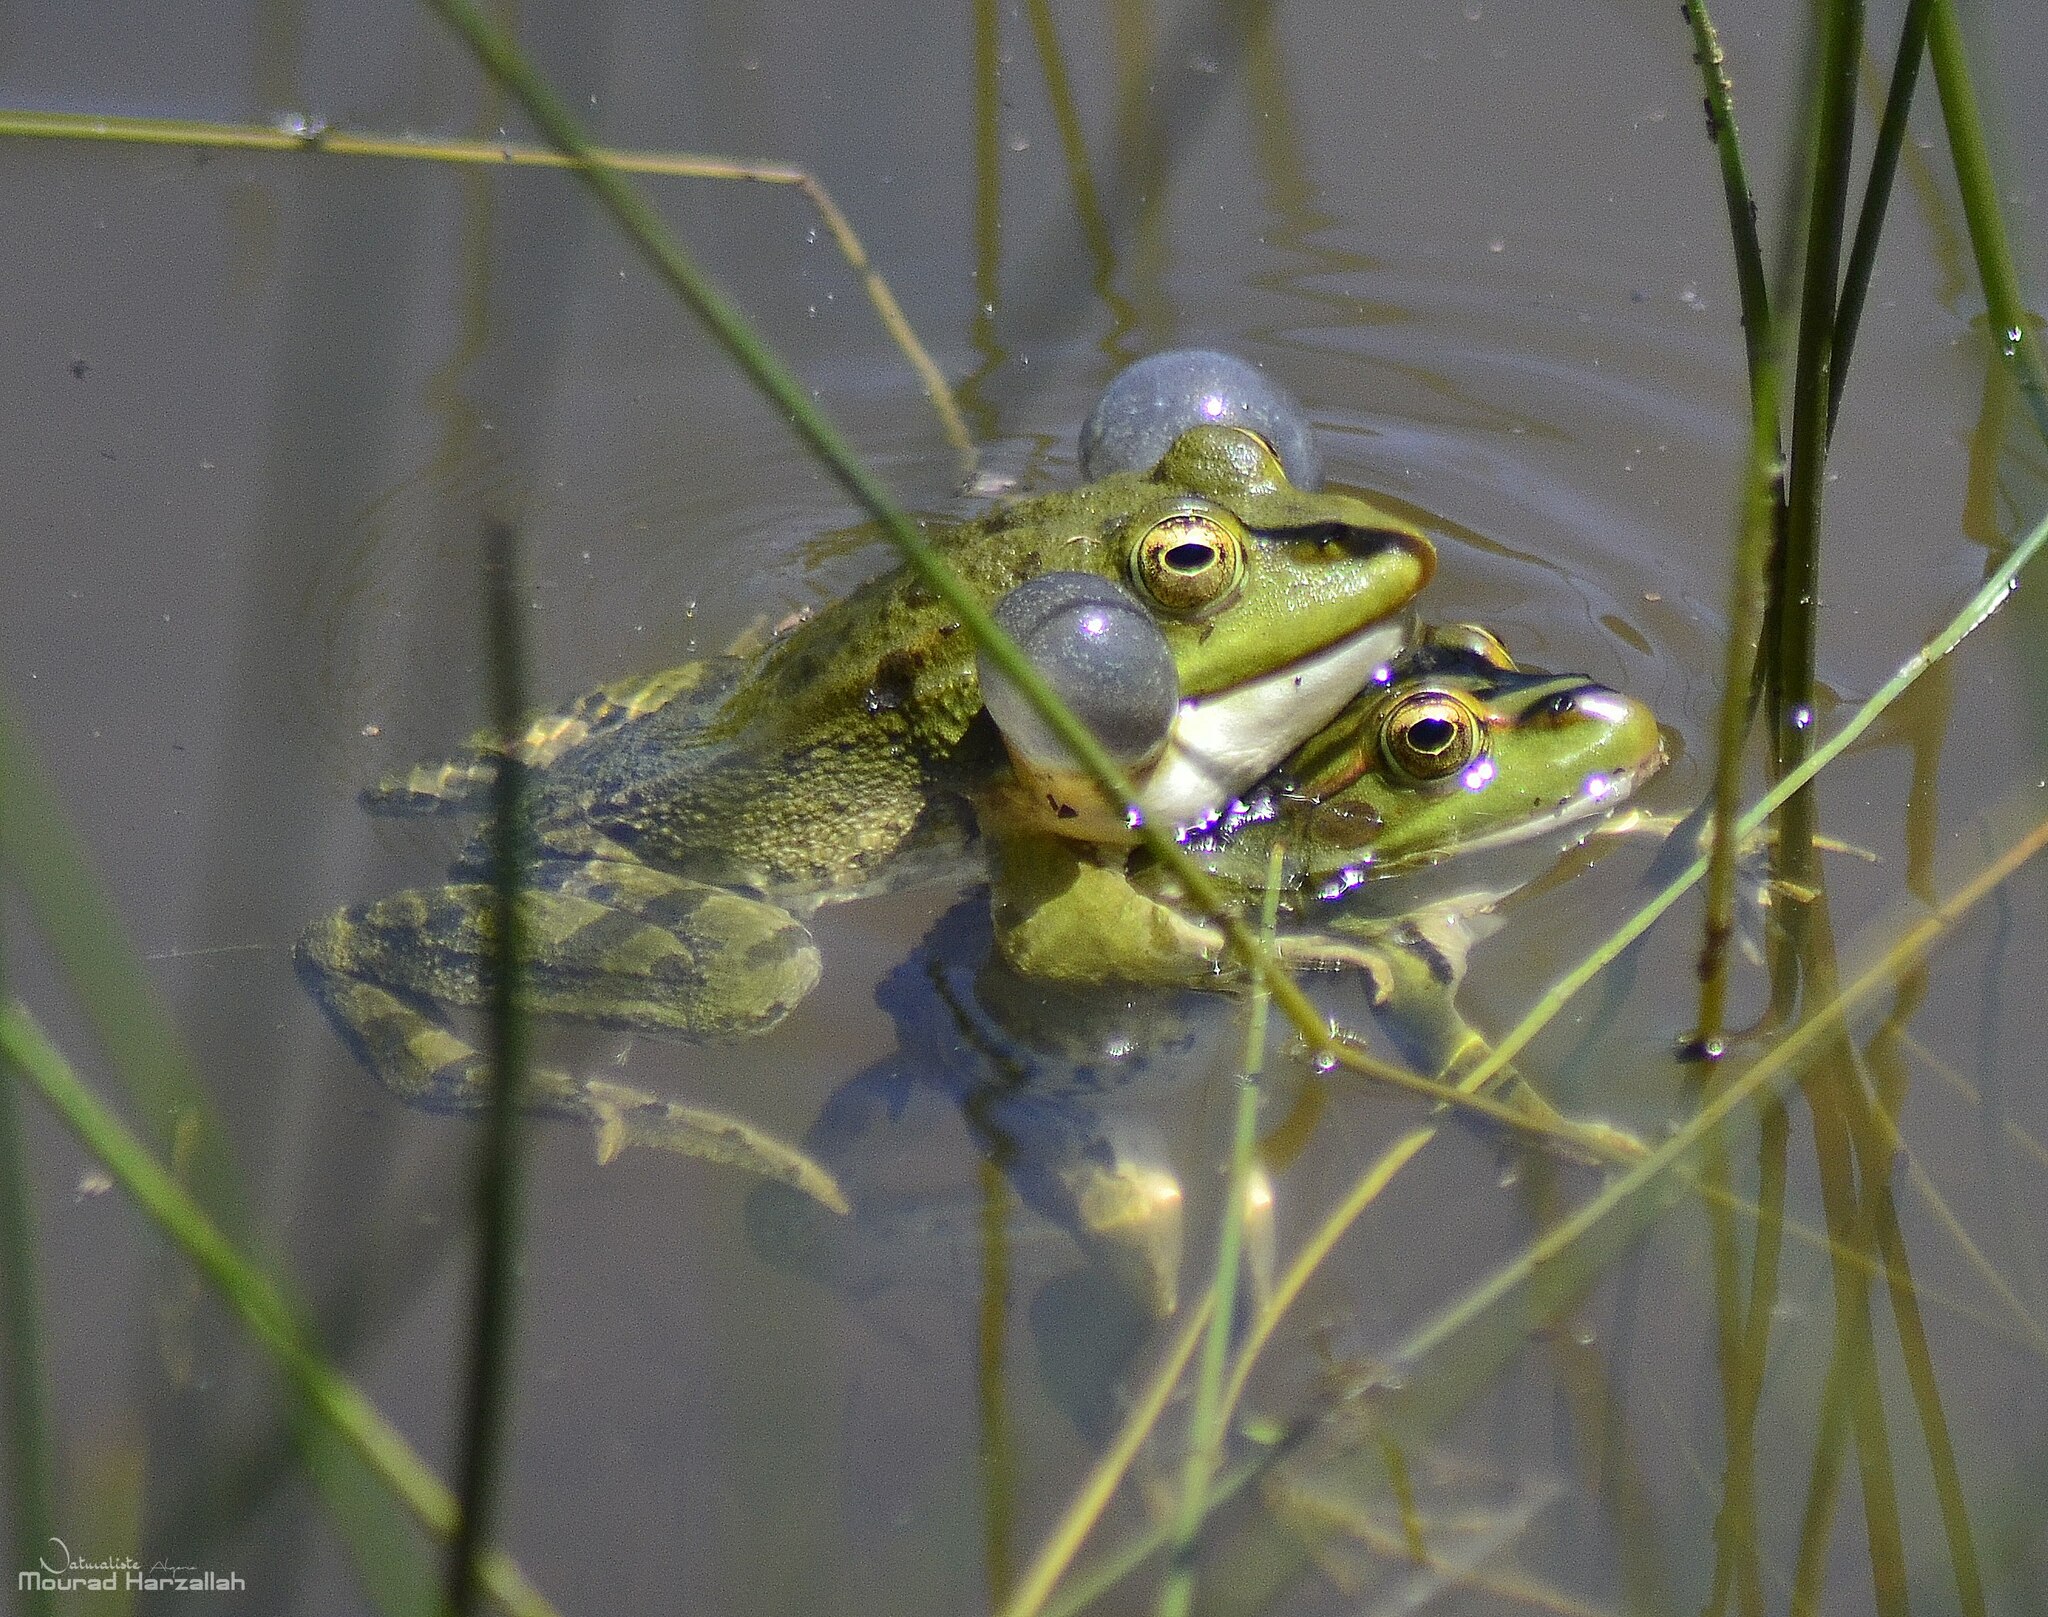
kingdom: Animalia
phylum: Chordata
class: Amphibia
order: Anura
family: Ranidae
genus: Pelophylax
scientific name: Pelophylax saharicus
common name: Sahara frog
